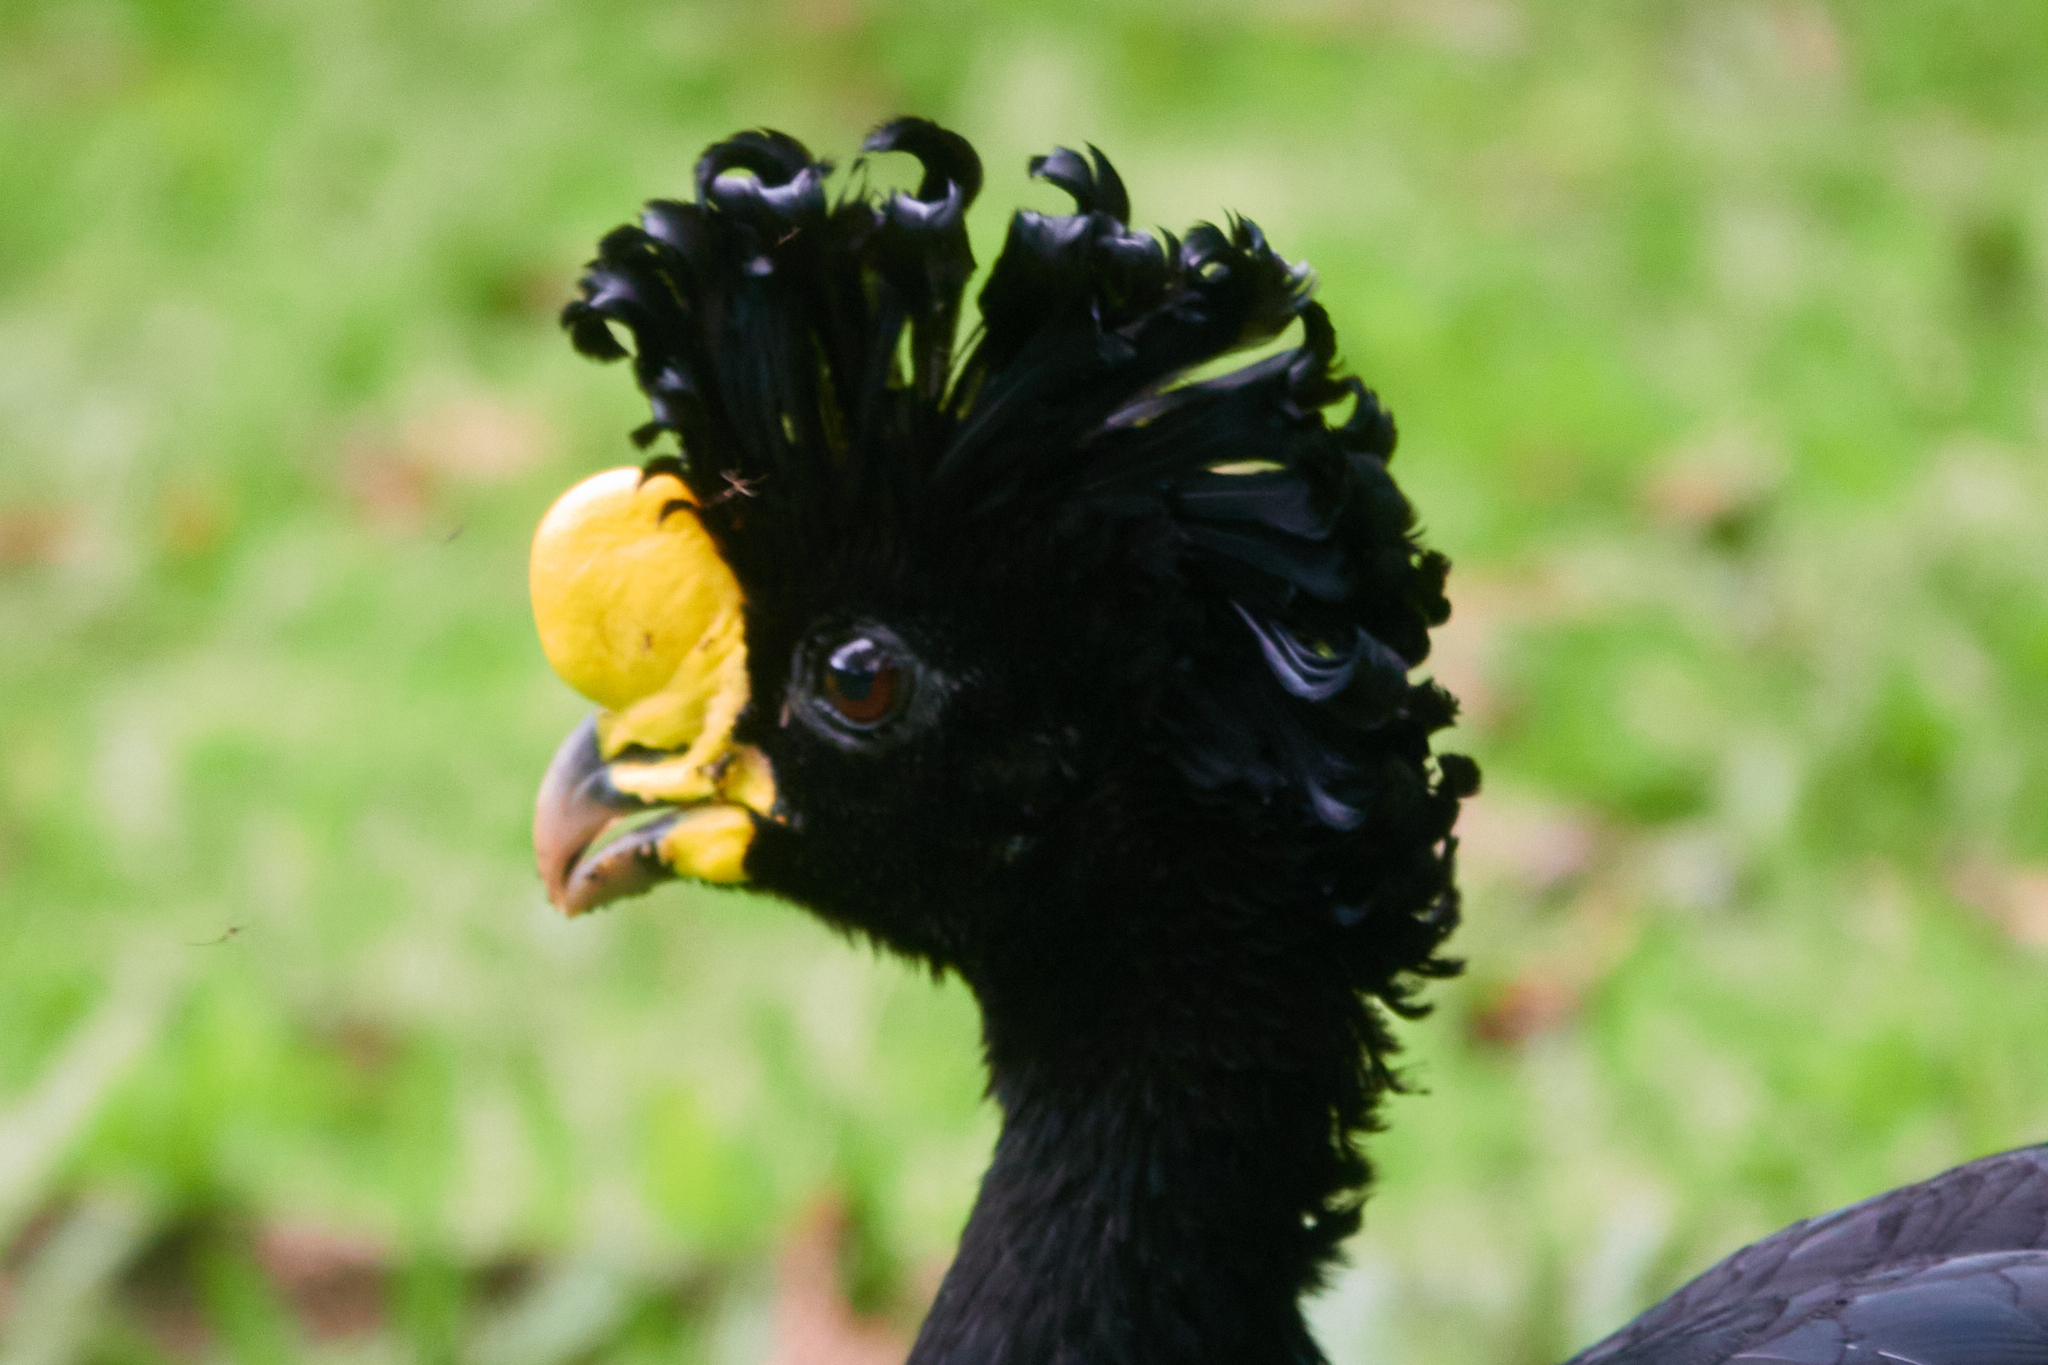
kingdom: Animalia
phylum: Chordata
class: Aves
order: Galliformes
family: Cracidae
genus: Crax
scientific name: Crax rubra
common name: Great curassow
